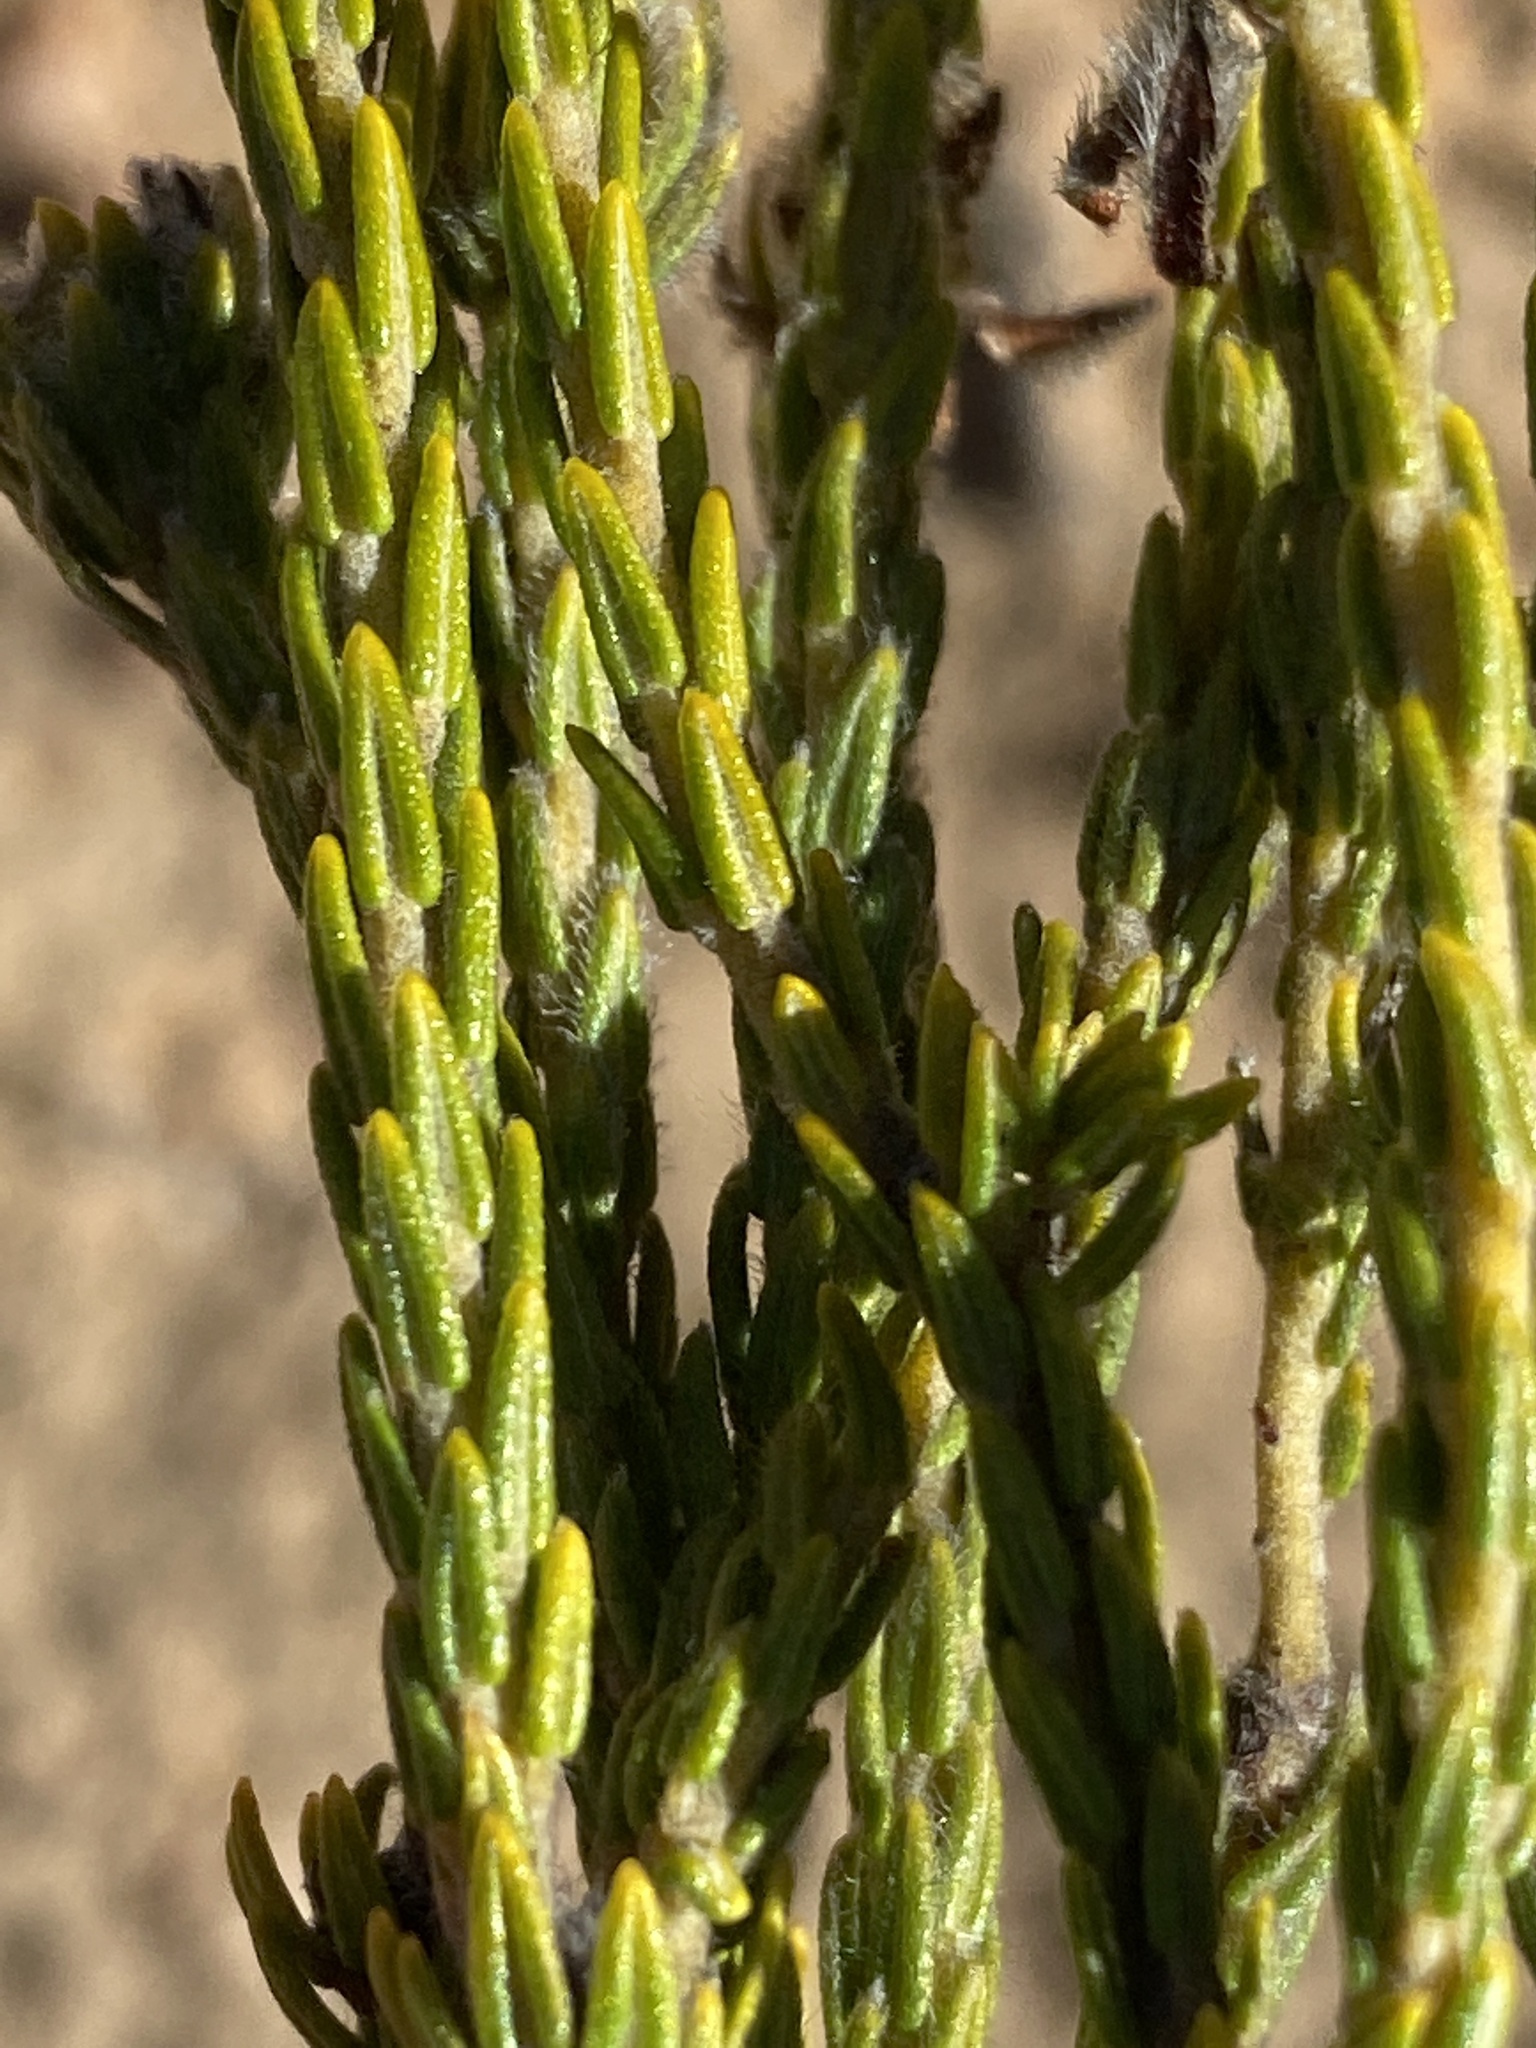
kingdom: Plantae
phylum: Tracheophyta
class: Magnoliopsida
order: Rosales
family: Rhamnaceae
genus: Phylica
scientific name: Phylica pulchella
